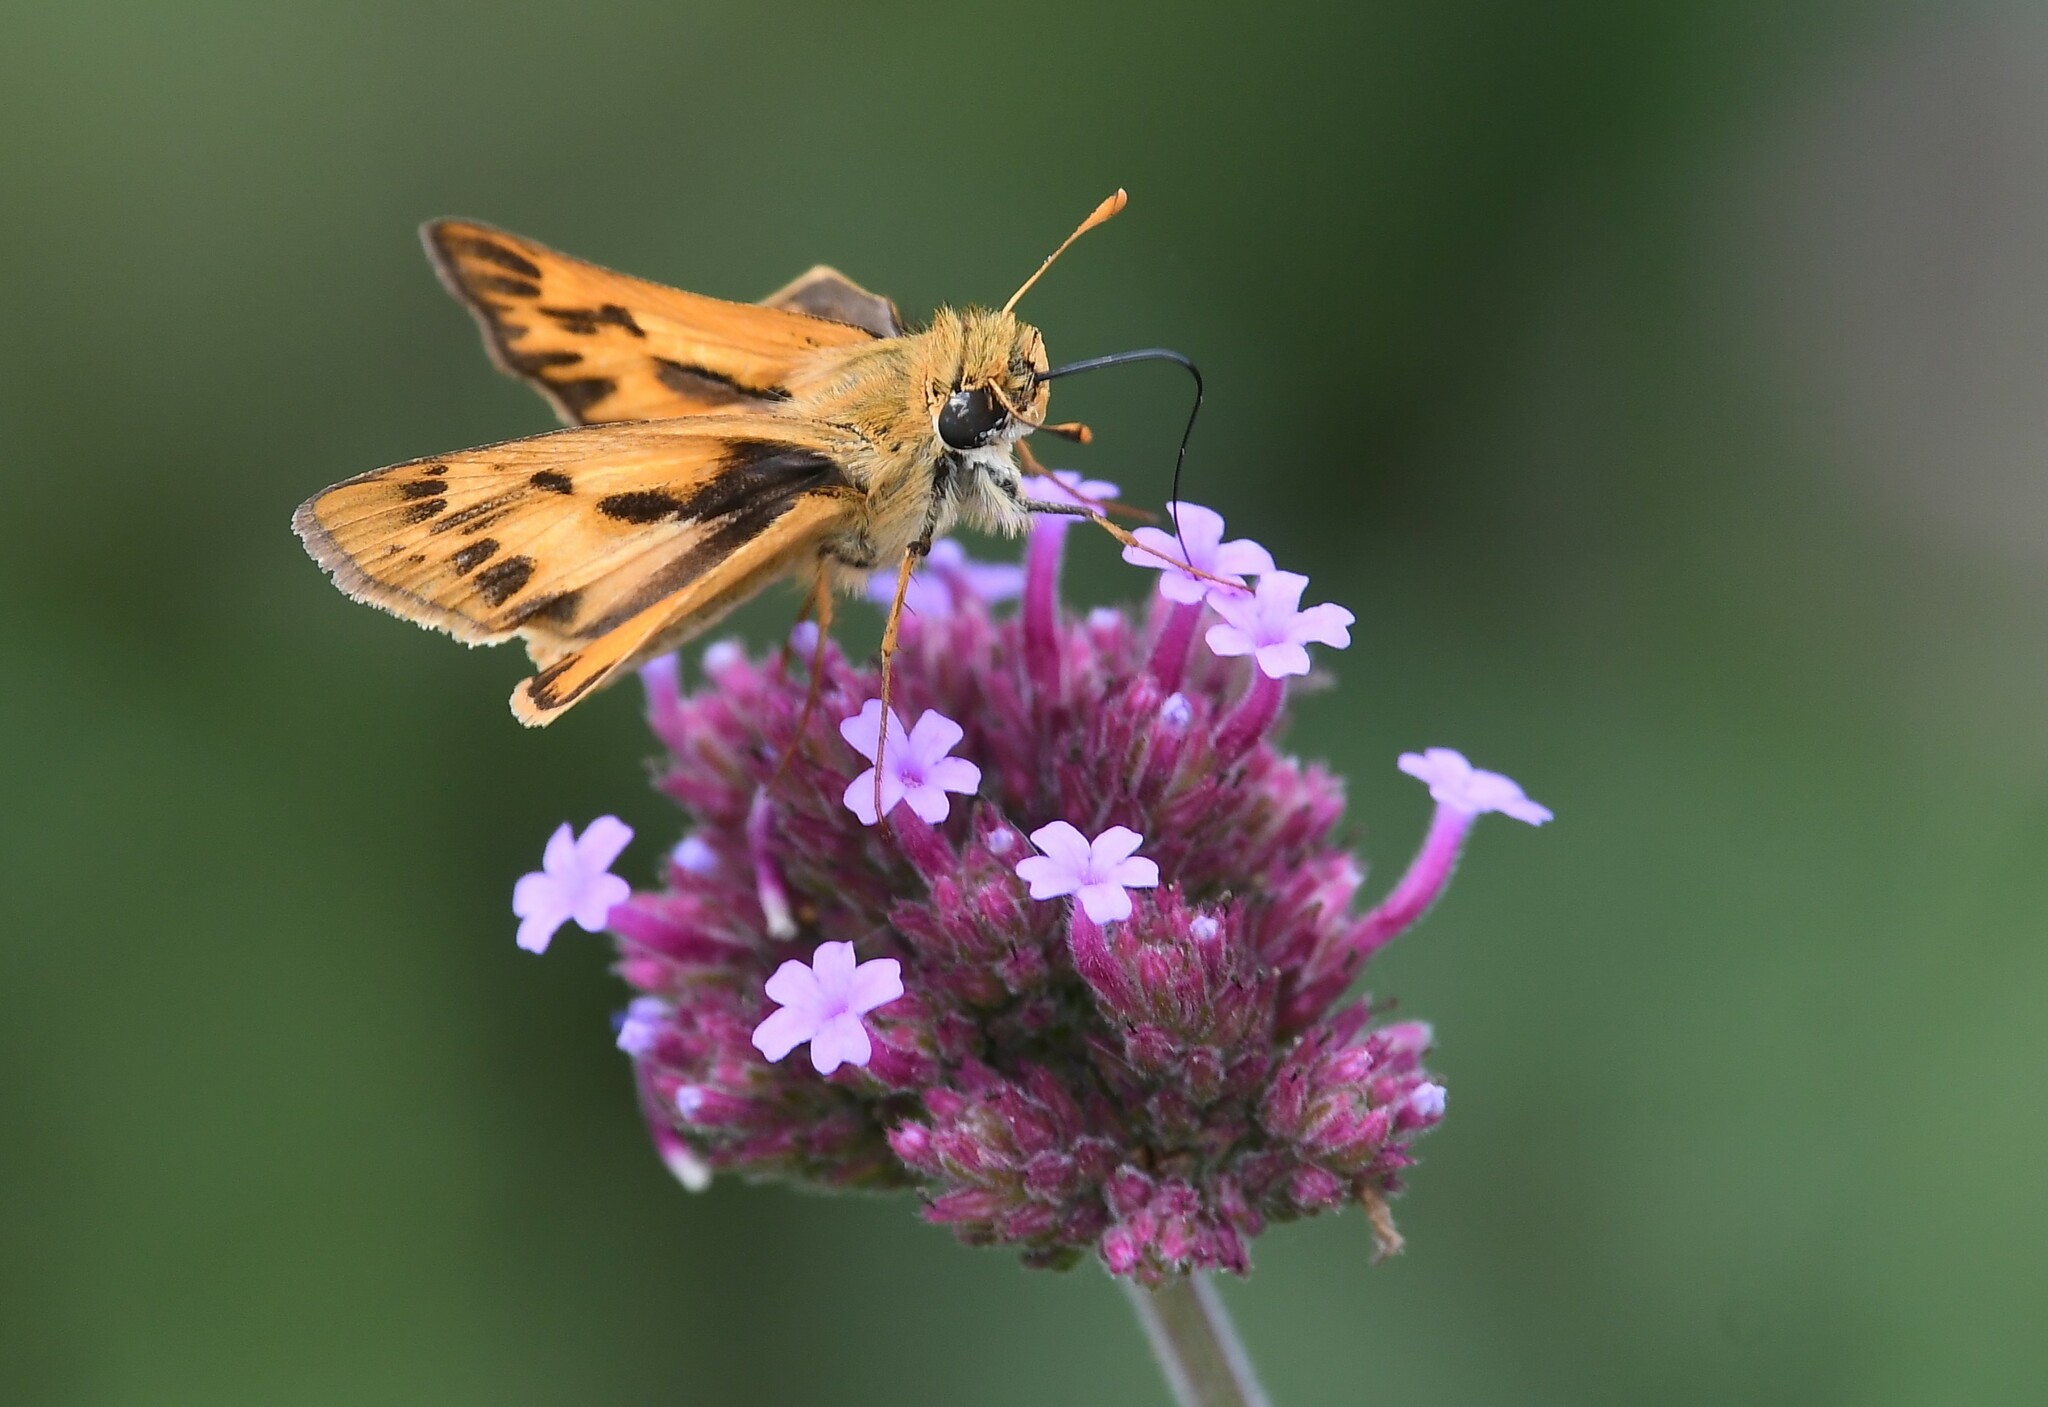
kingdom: Animalia
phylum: Arthropoda
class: Insecta
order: Lepidoptera
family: Hesperiidae
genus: Hylephila
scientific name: Hylephila phyleus
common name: Fiery skipper
